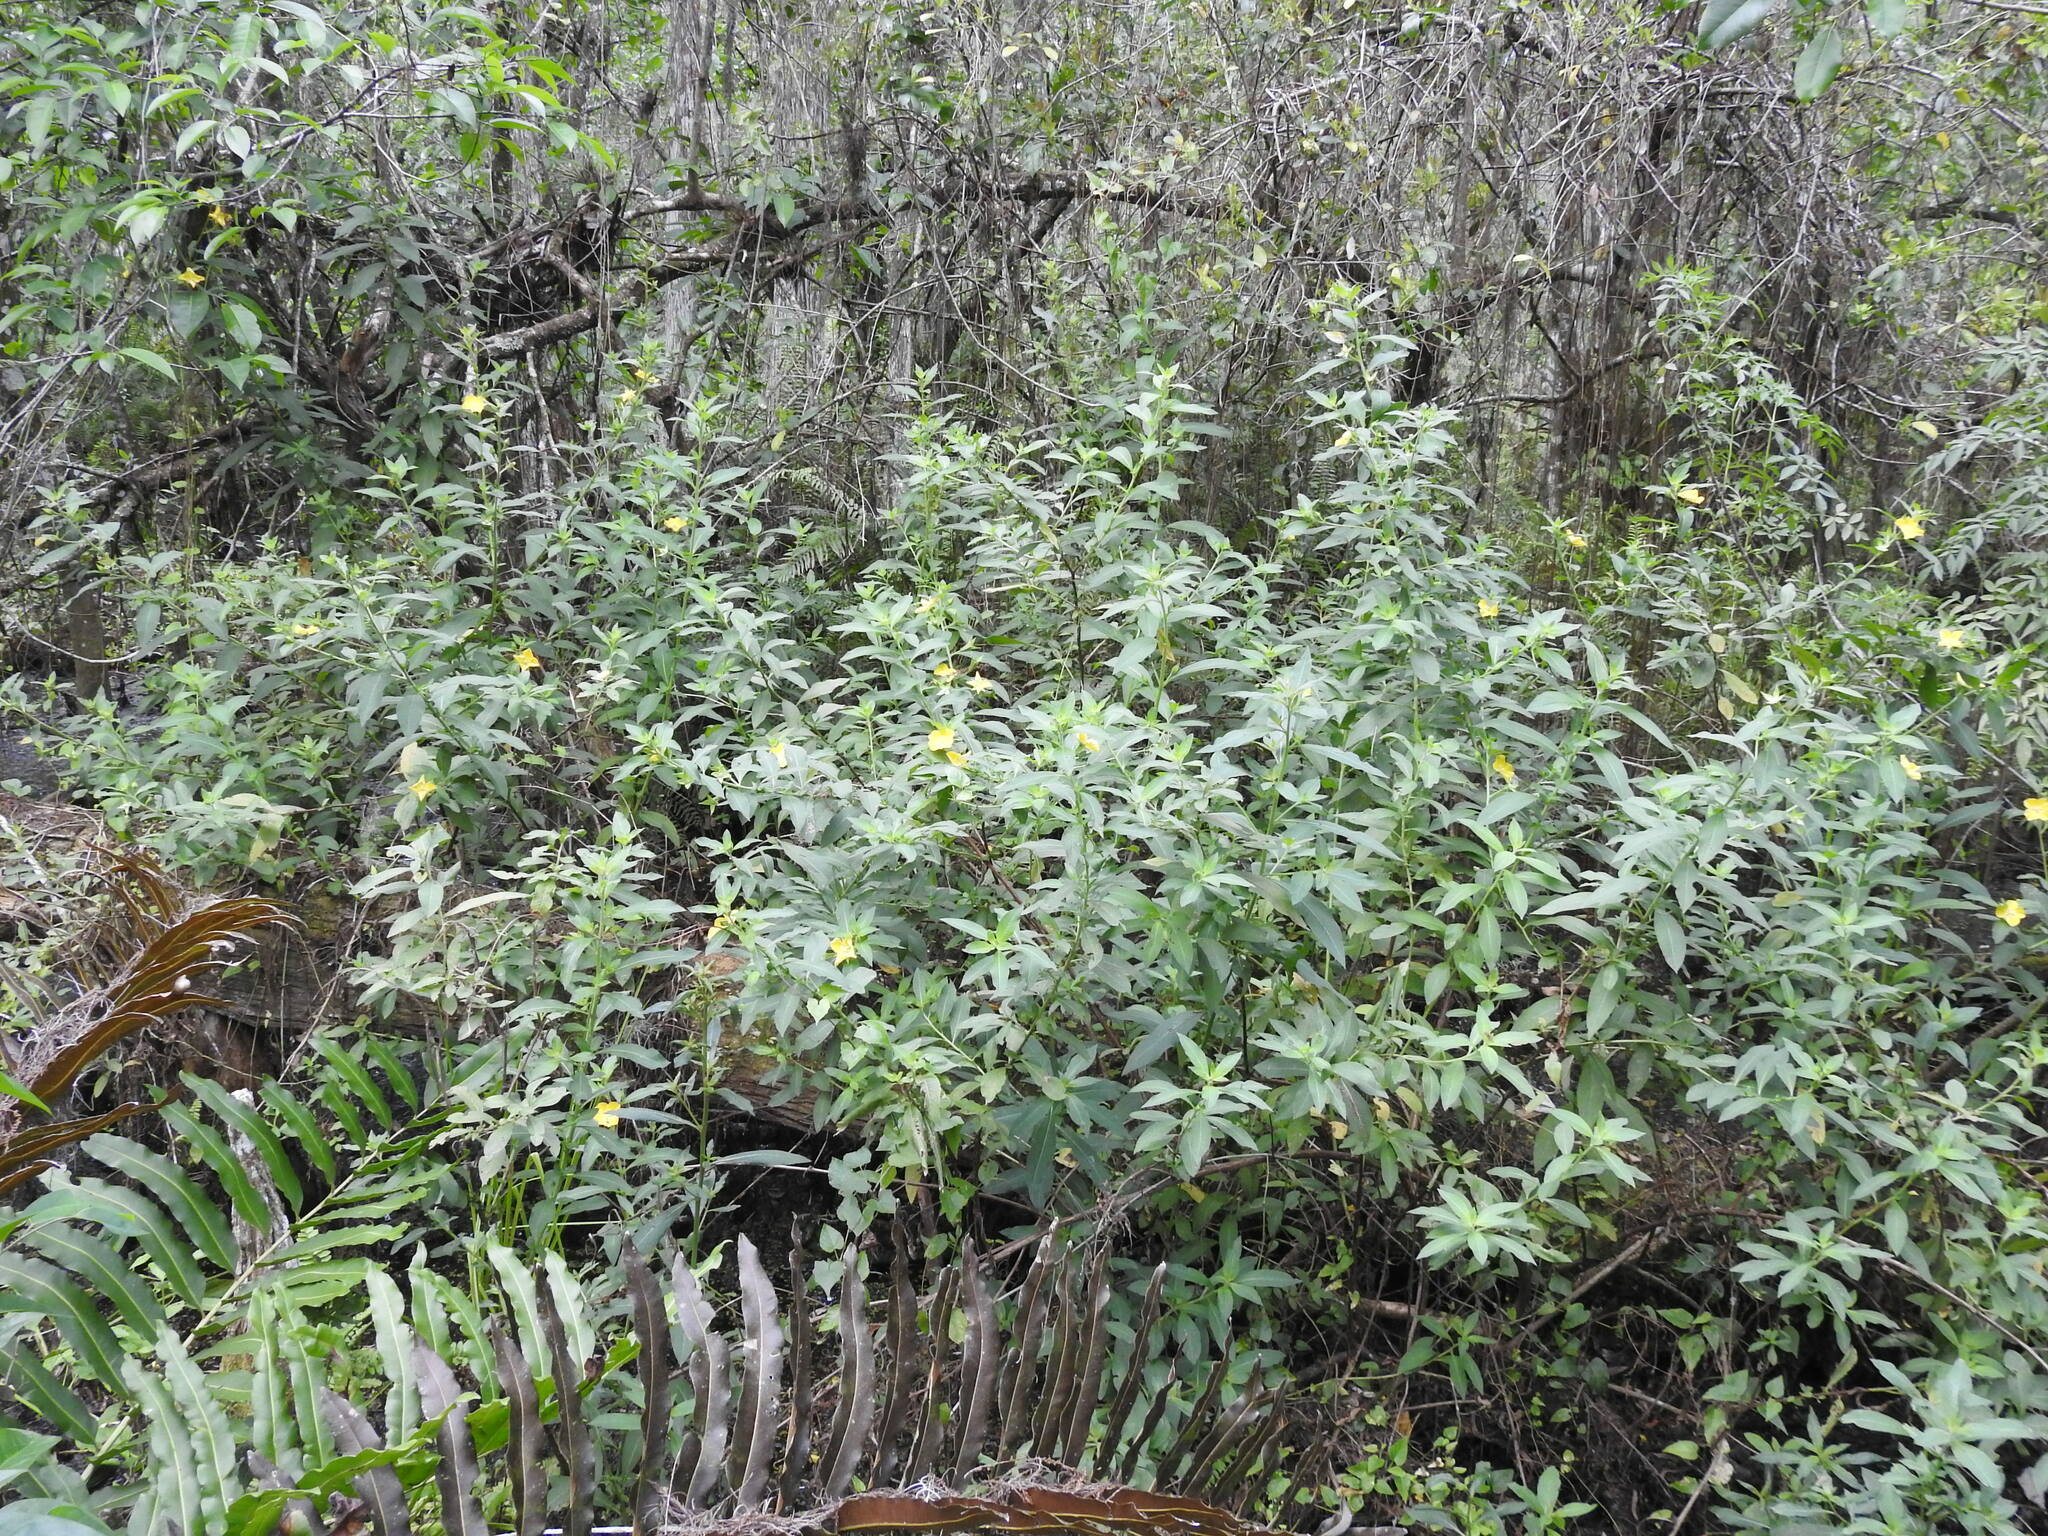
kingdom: Plantae
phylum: Tracheophyta
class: Magnoliopsida
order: Myrtales
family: Onagraceae
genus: Ludwigia
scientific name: Ludwigia peruviana
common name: Peruvian primrose-willow
